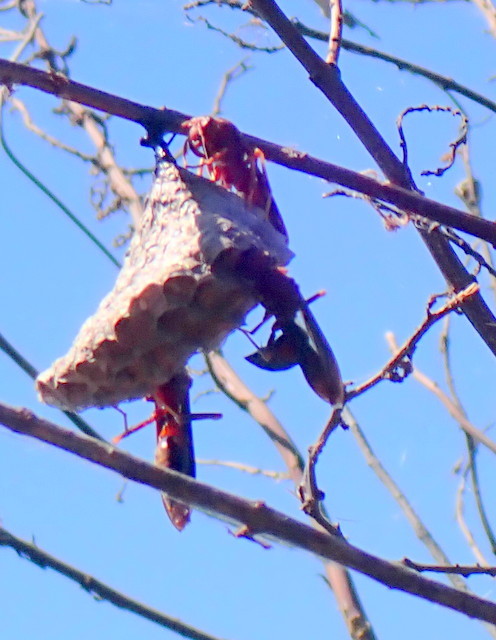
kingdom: Animalia
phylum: Arthropoda
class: Insecta
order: Hymenoptera
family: Eumenidae
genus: Polistes
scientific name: Polistes annularis
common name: Ringed paper wasp
